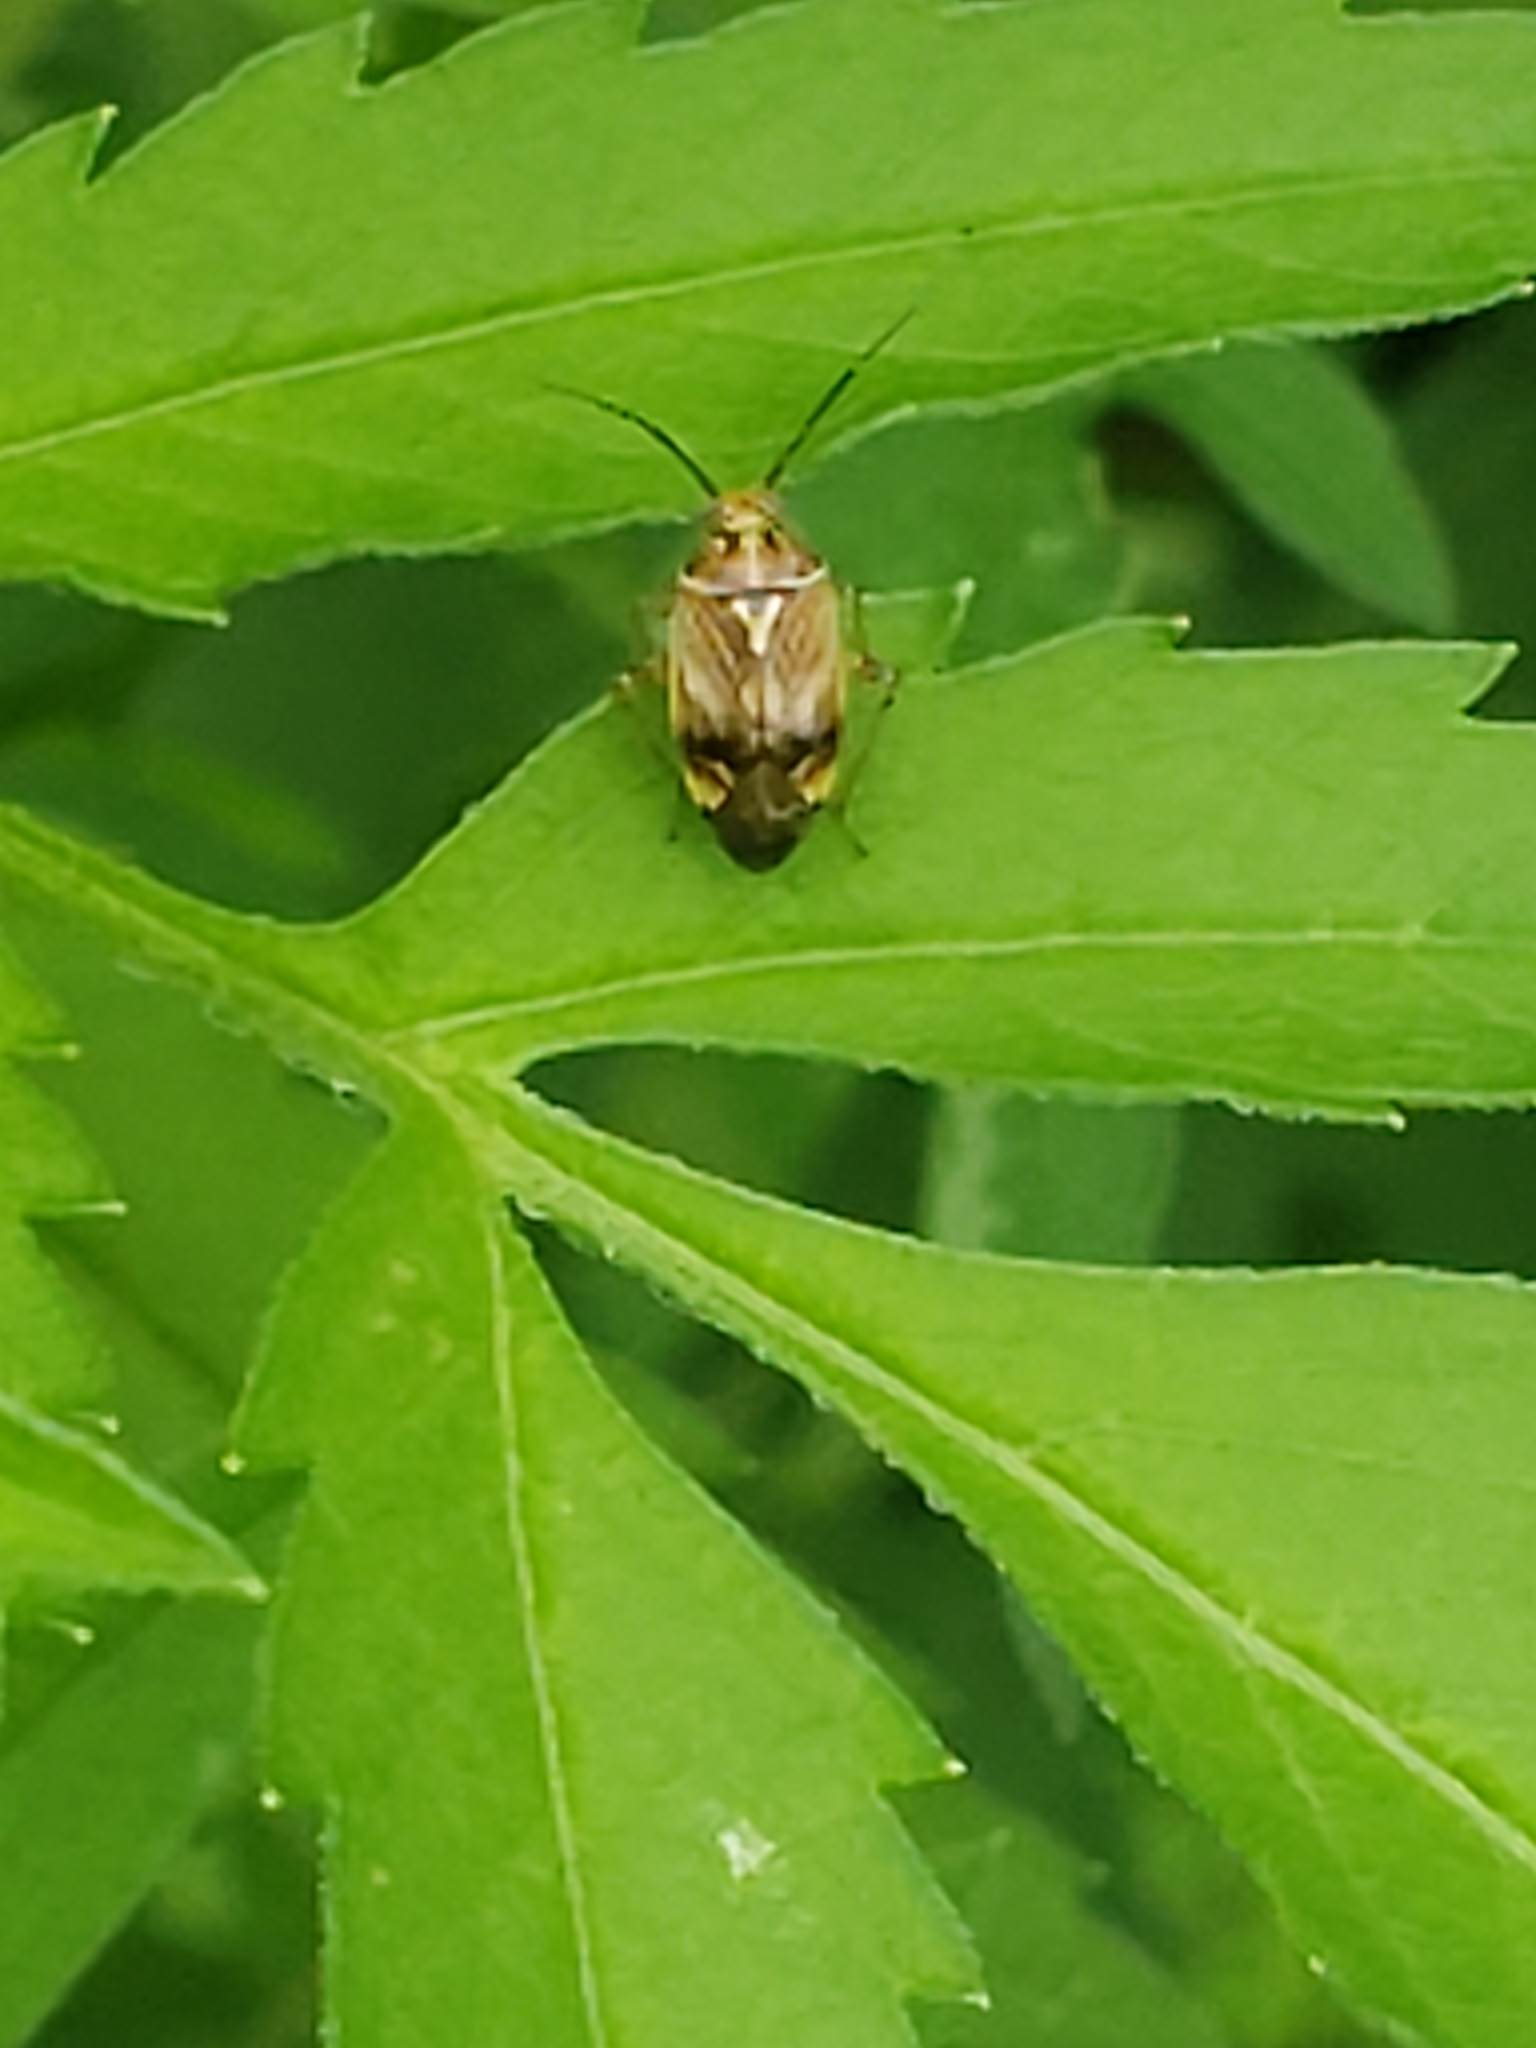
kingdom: Animalia
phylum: Arthropoda
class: Insecta
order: Hemiptera
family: Miridae
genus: Lygus
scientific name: Lygus lineolaris
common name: North american tarnished plant bug
